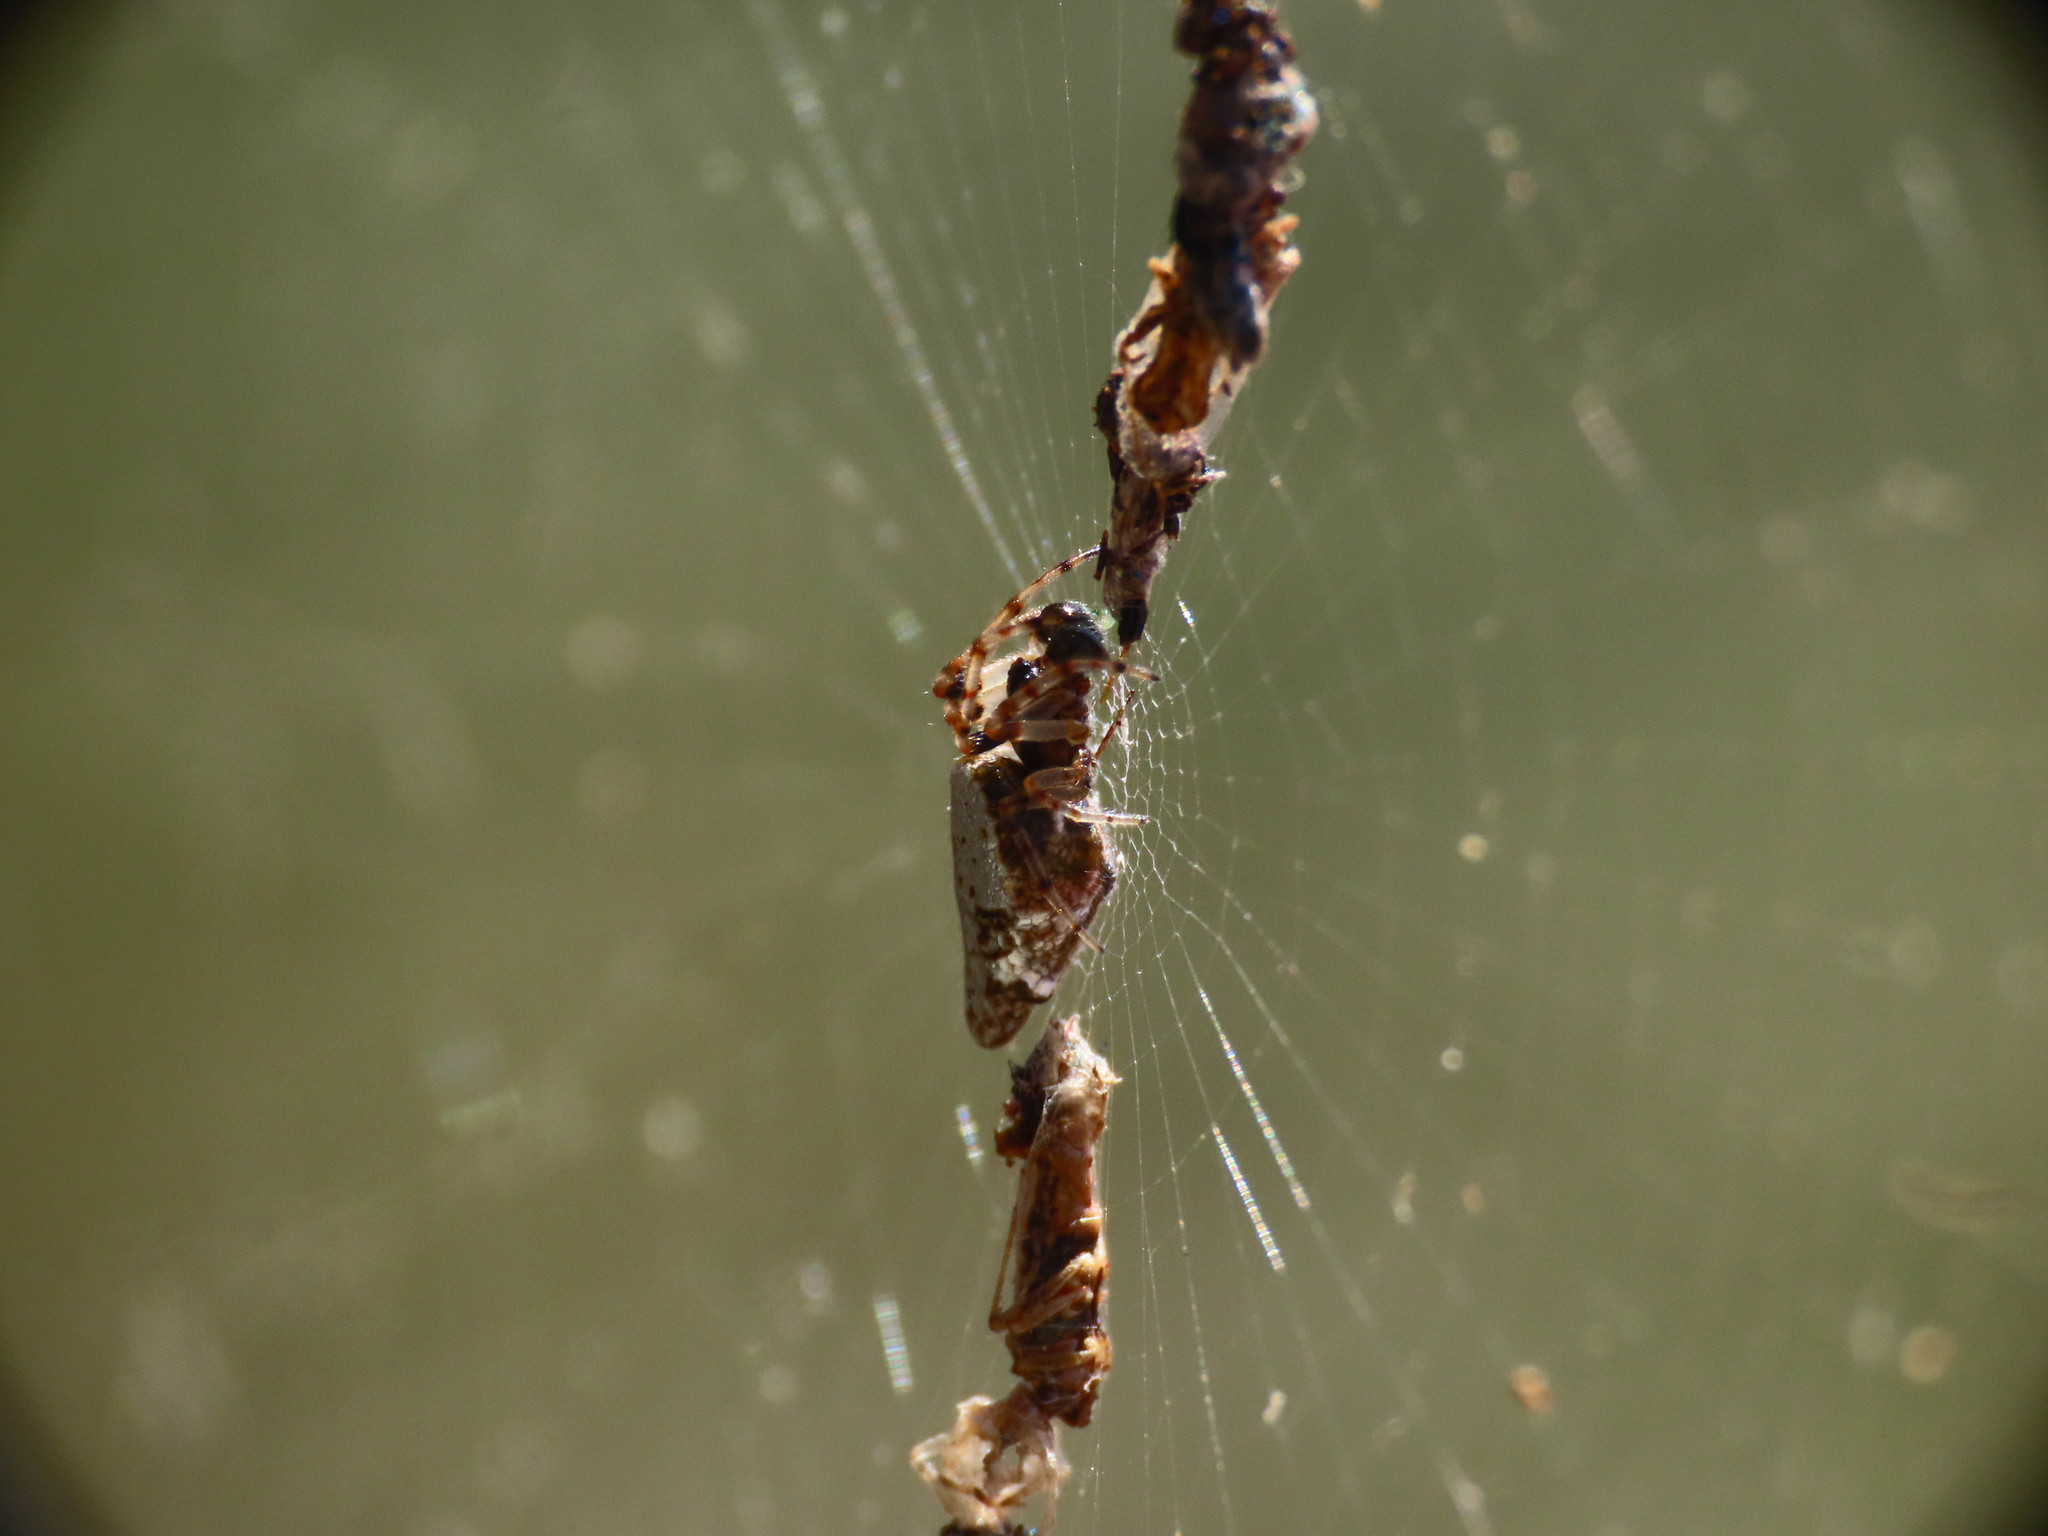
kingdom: Animalia
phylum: Arthropoda
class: Arachnida
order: Araneae
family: Araneidae
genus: Cyclosa
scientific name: Cyclosa insulana
